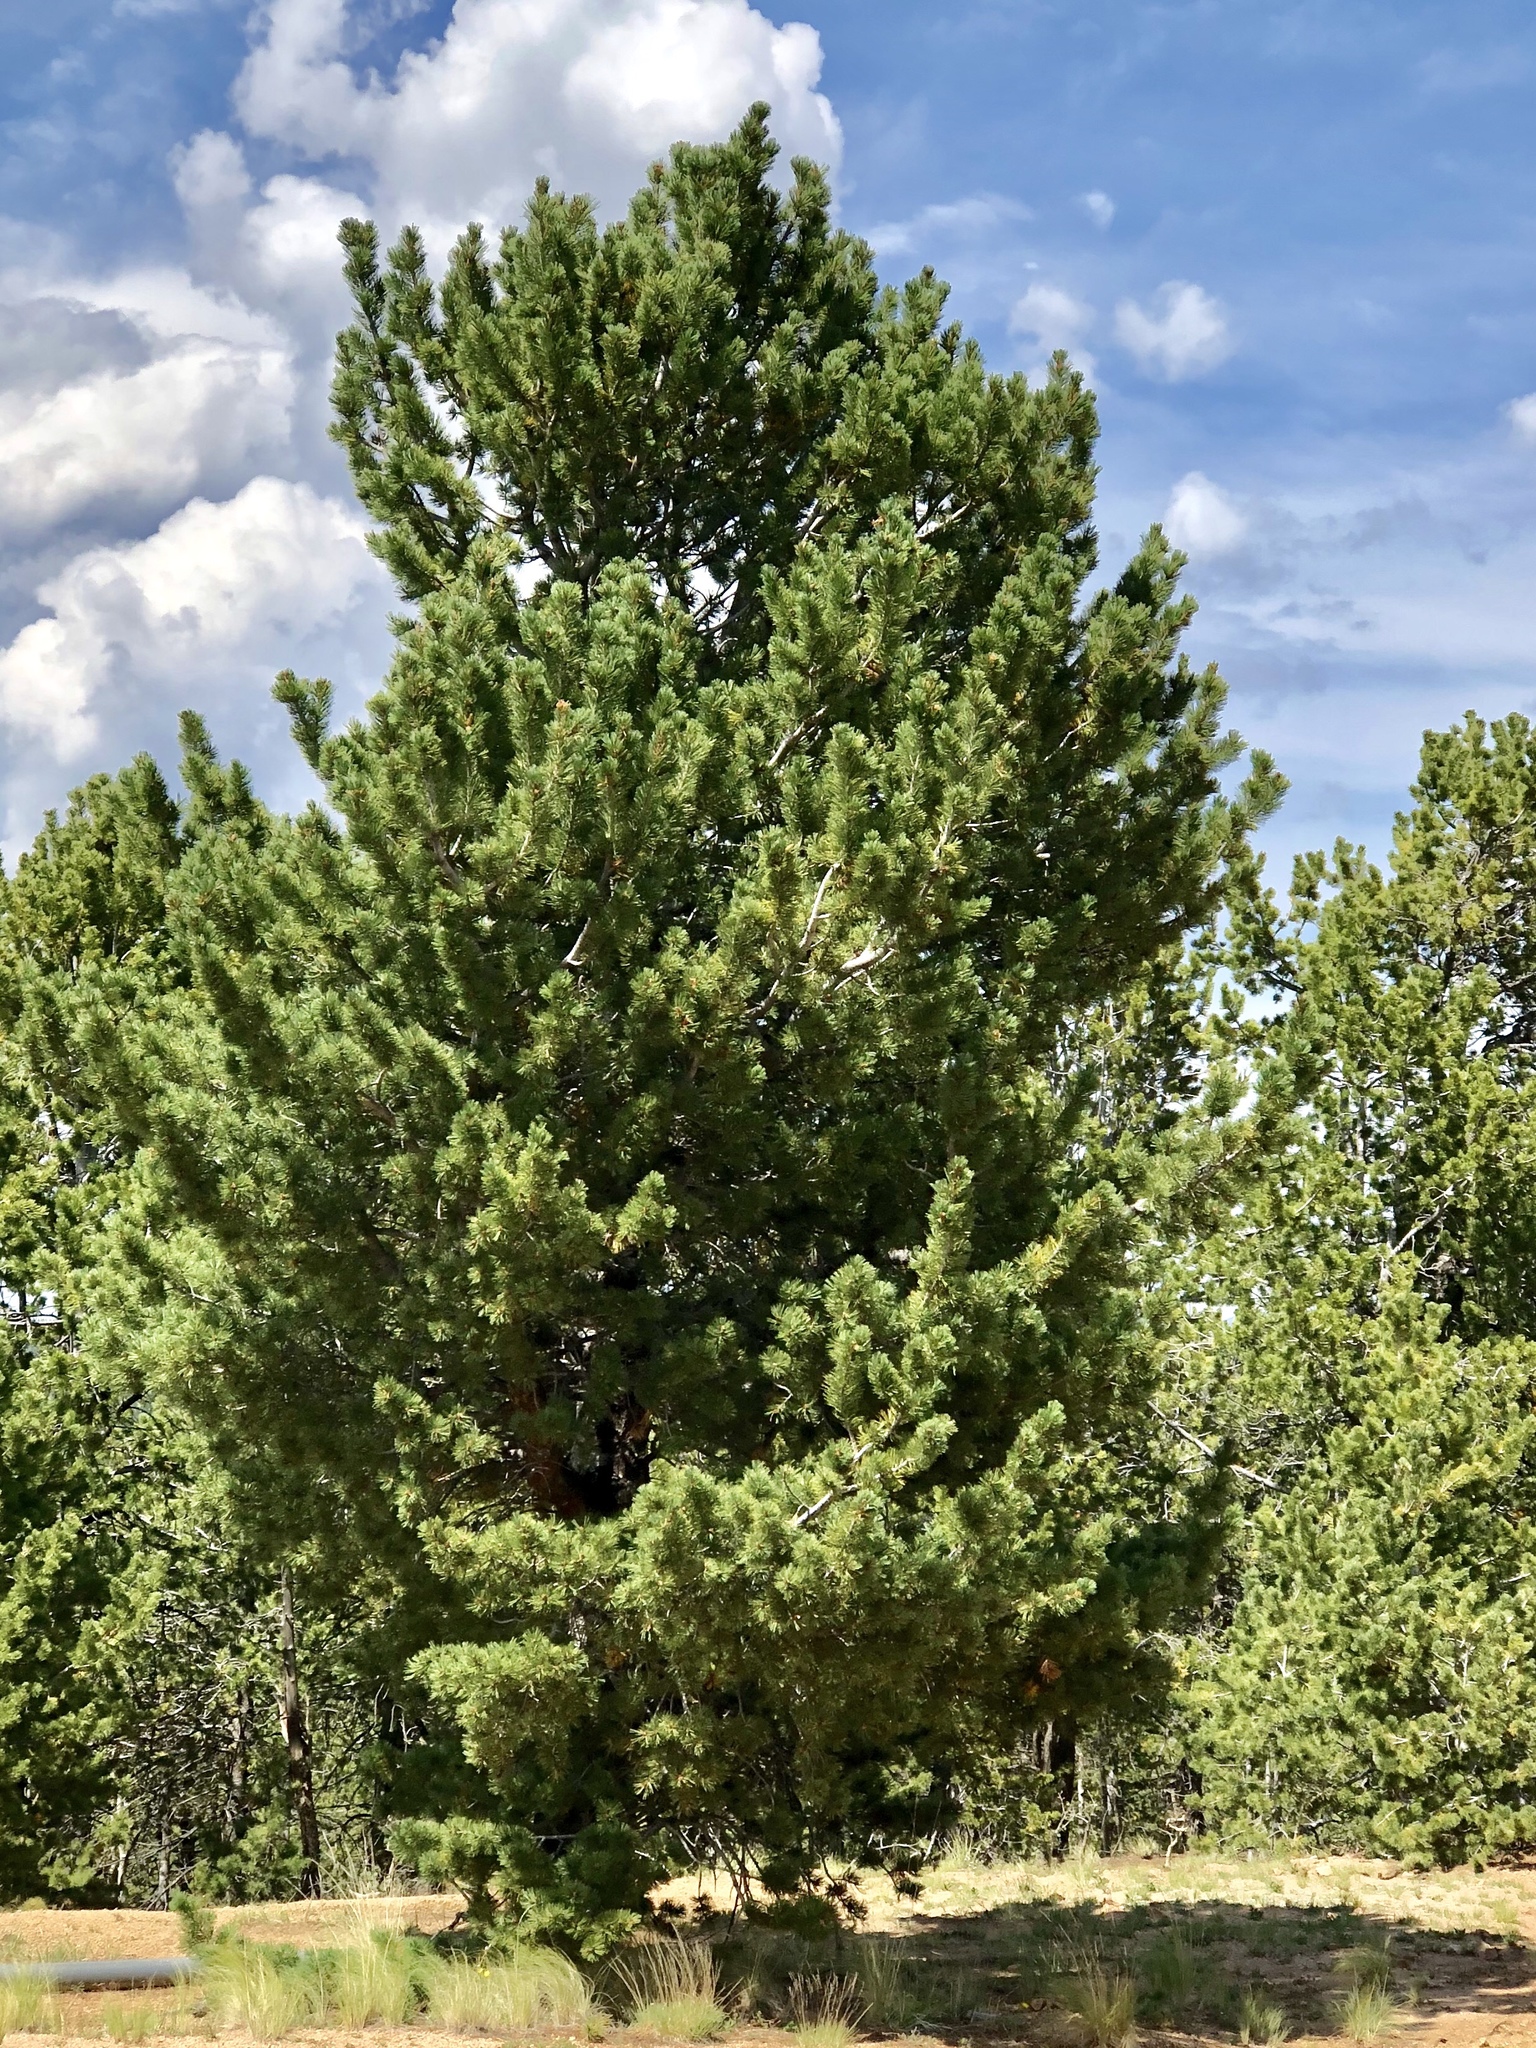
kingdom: Plantae
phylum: Tracheophyta
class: Pinopsida
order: Pinales
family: Pinaceae
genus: Pinus
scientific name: Pinus flexilis
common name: Limber pine
